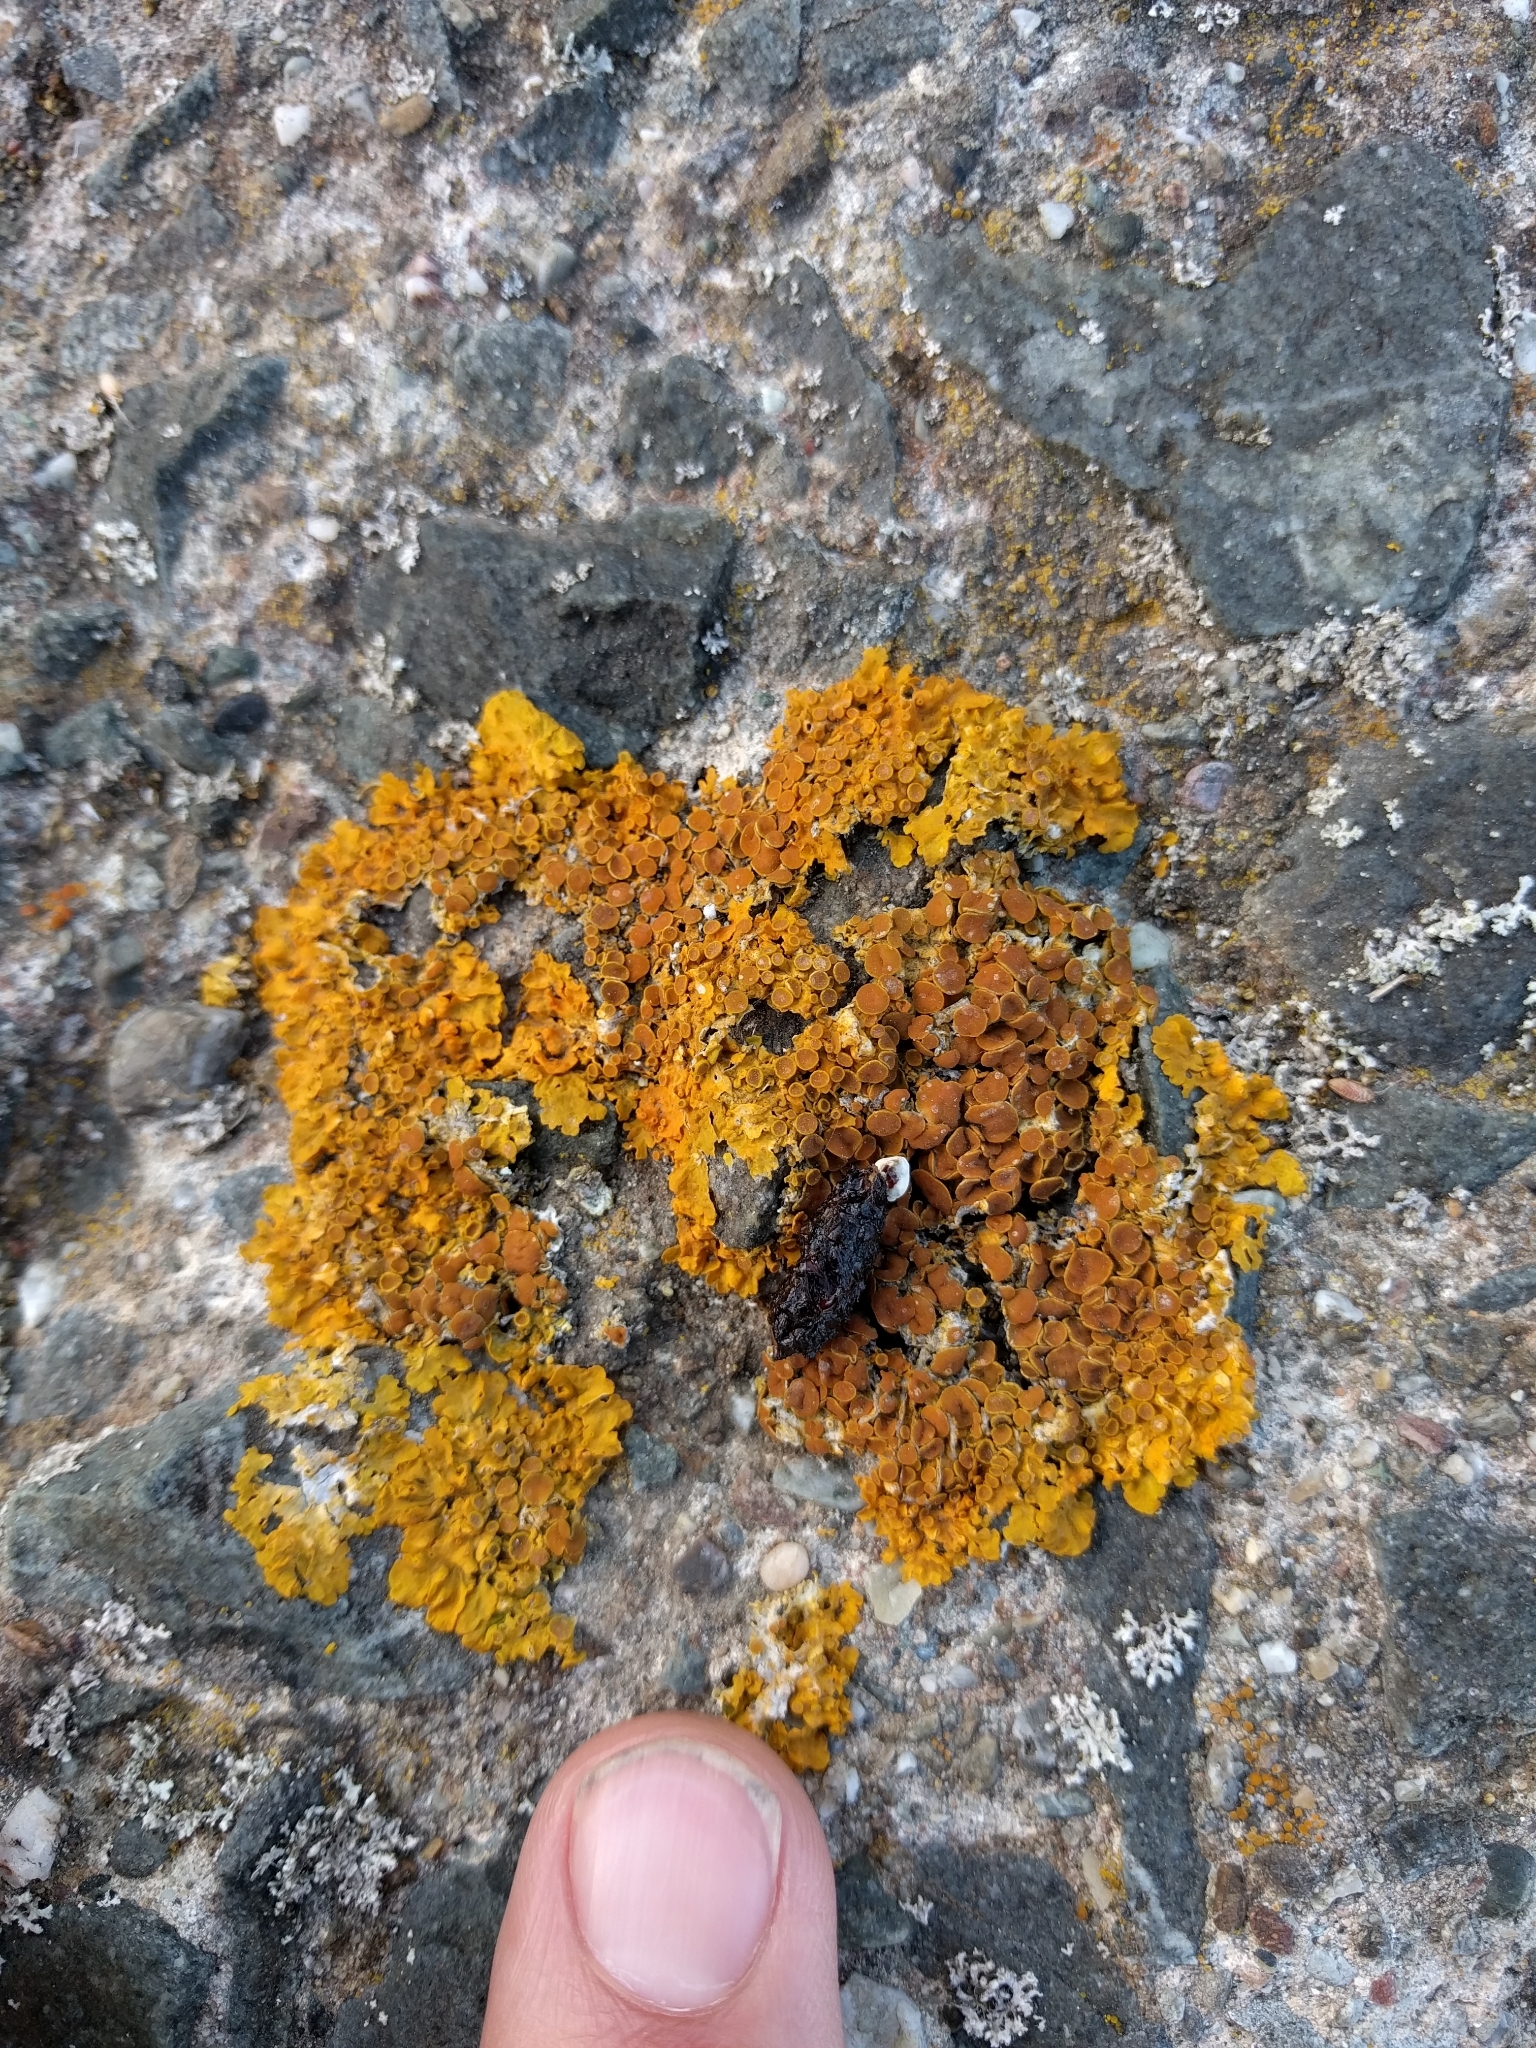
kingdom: Fungi
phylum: Ascomycota
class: Lecanoromycetes
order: Teloschistales
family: Teloschistaceae
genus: Xanthoria
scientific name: Xanthoria parietina
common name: Common orange lichen
